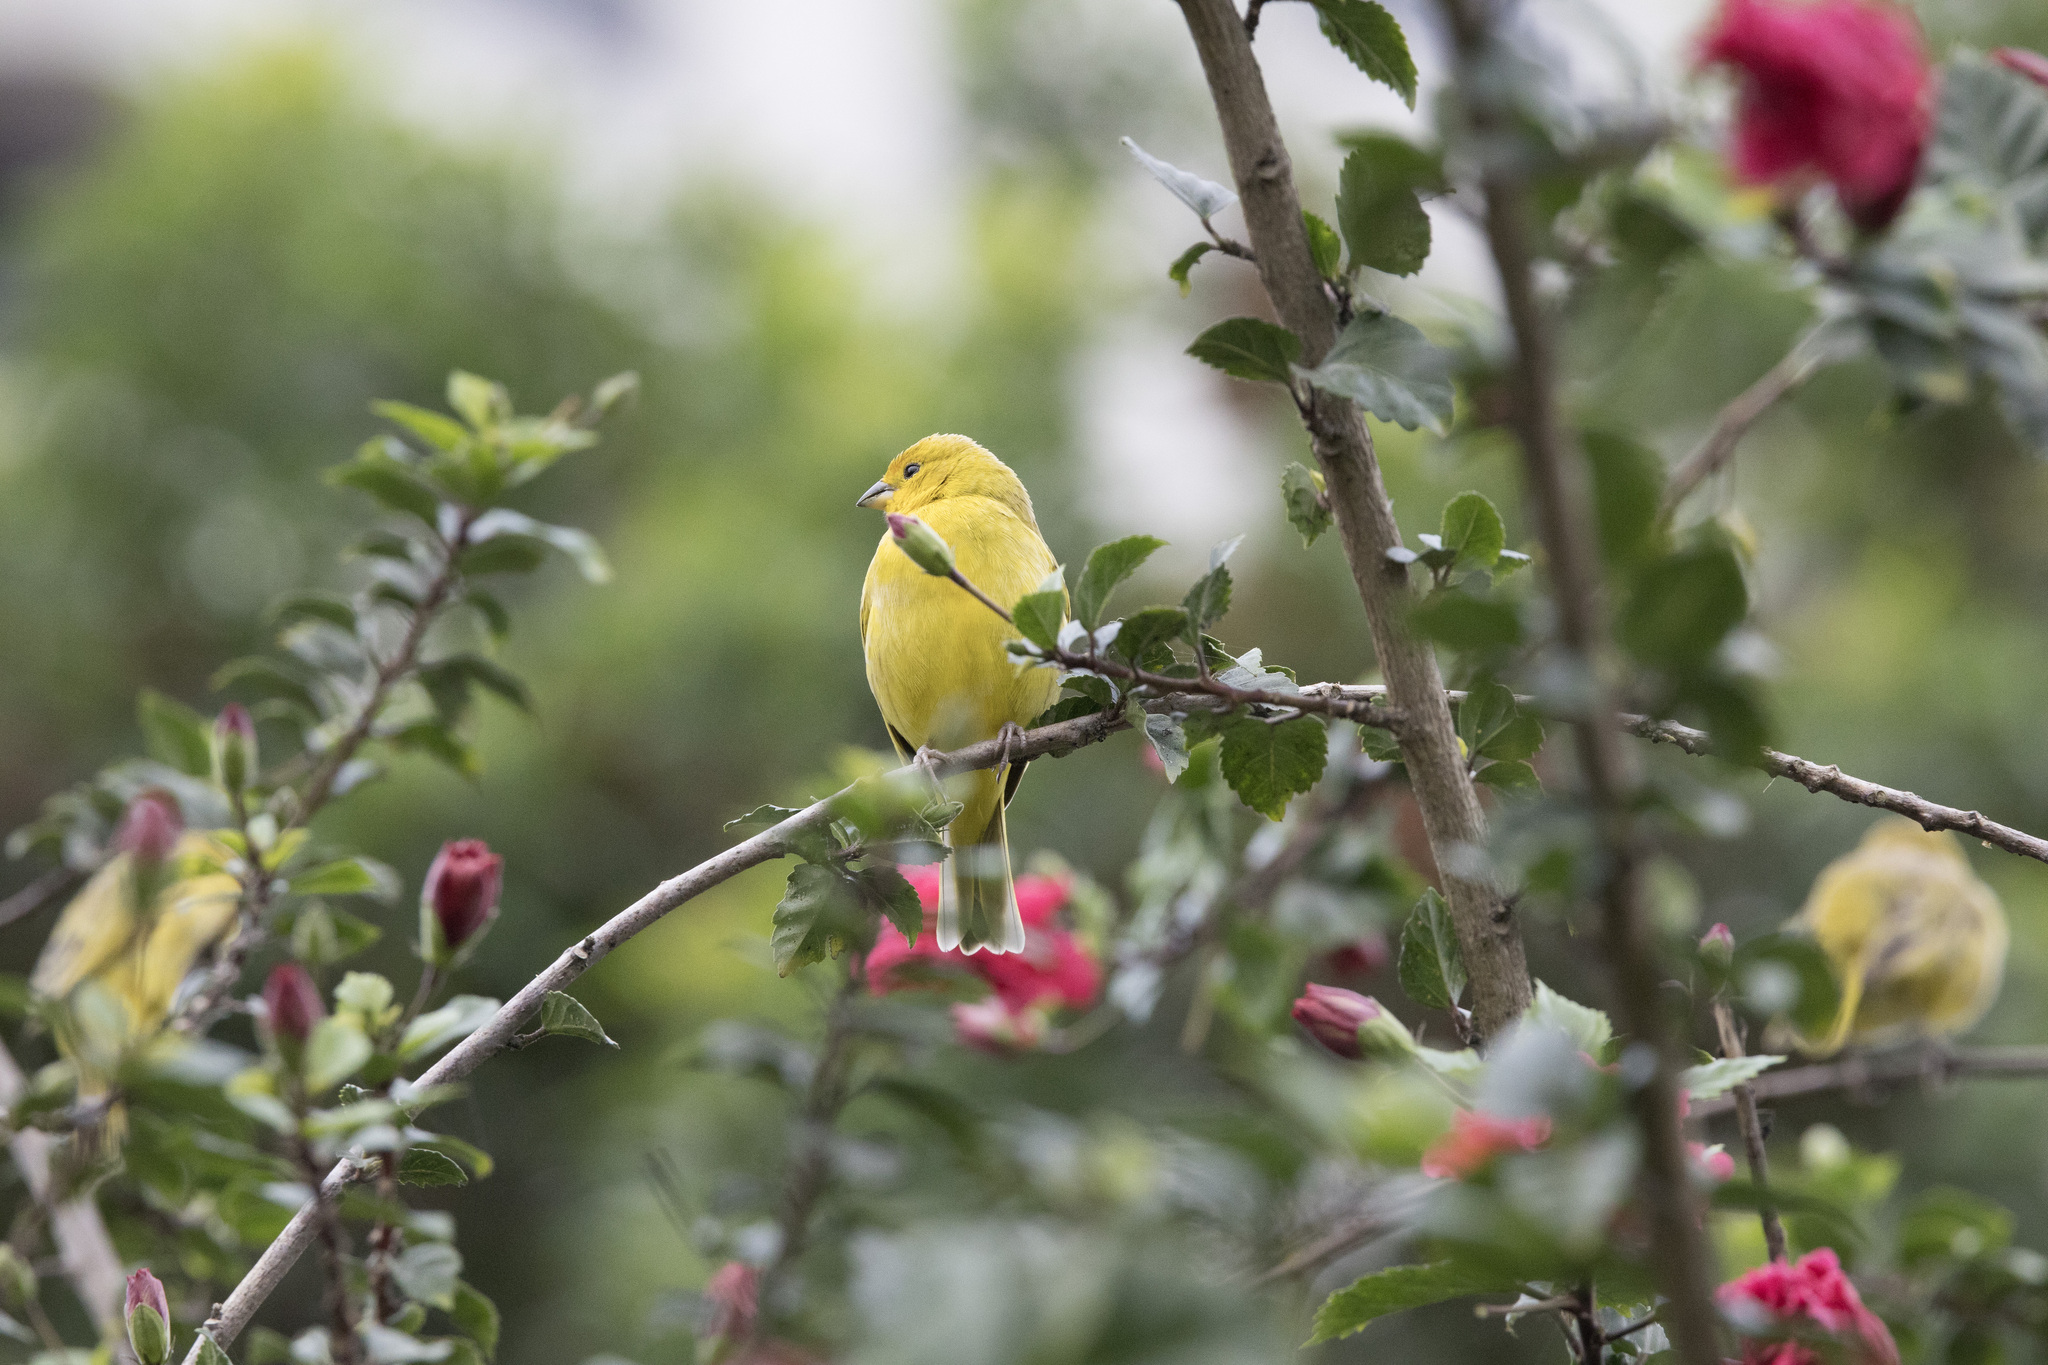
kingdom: Animalia
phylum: Chordata
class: Aves
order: Passeriformes
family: Thraupidae
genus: Sicalis
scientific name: Sicalis flaveola
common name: Saffron finch
